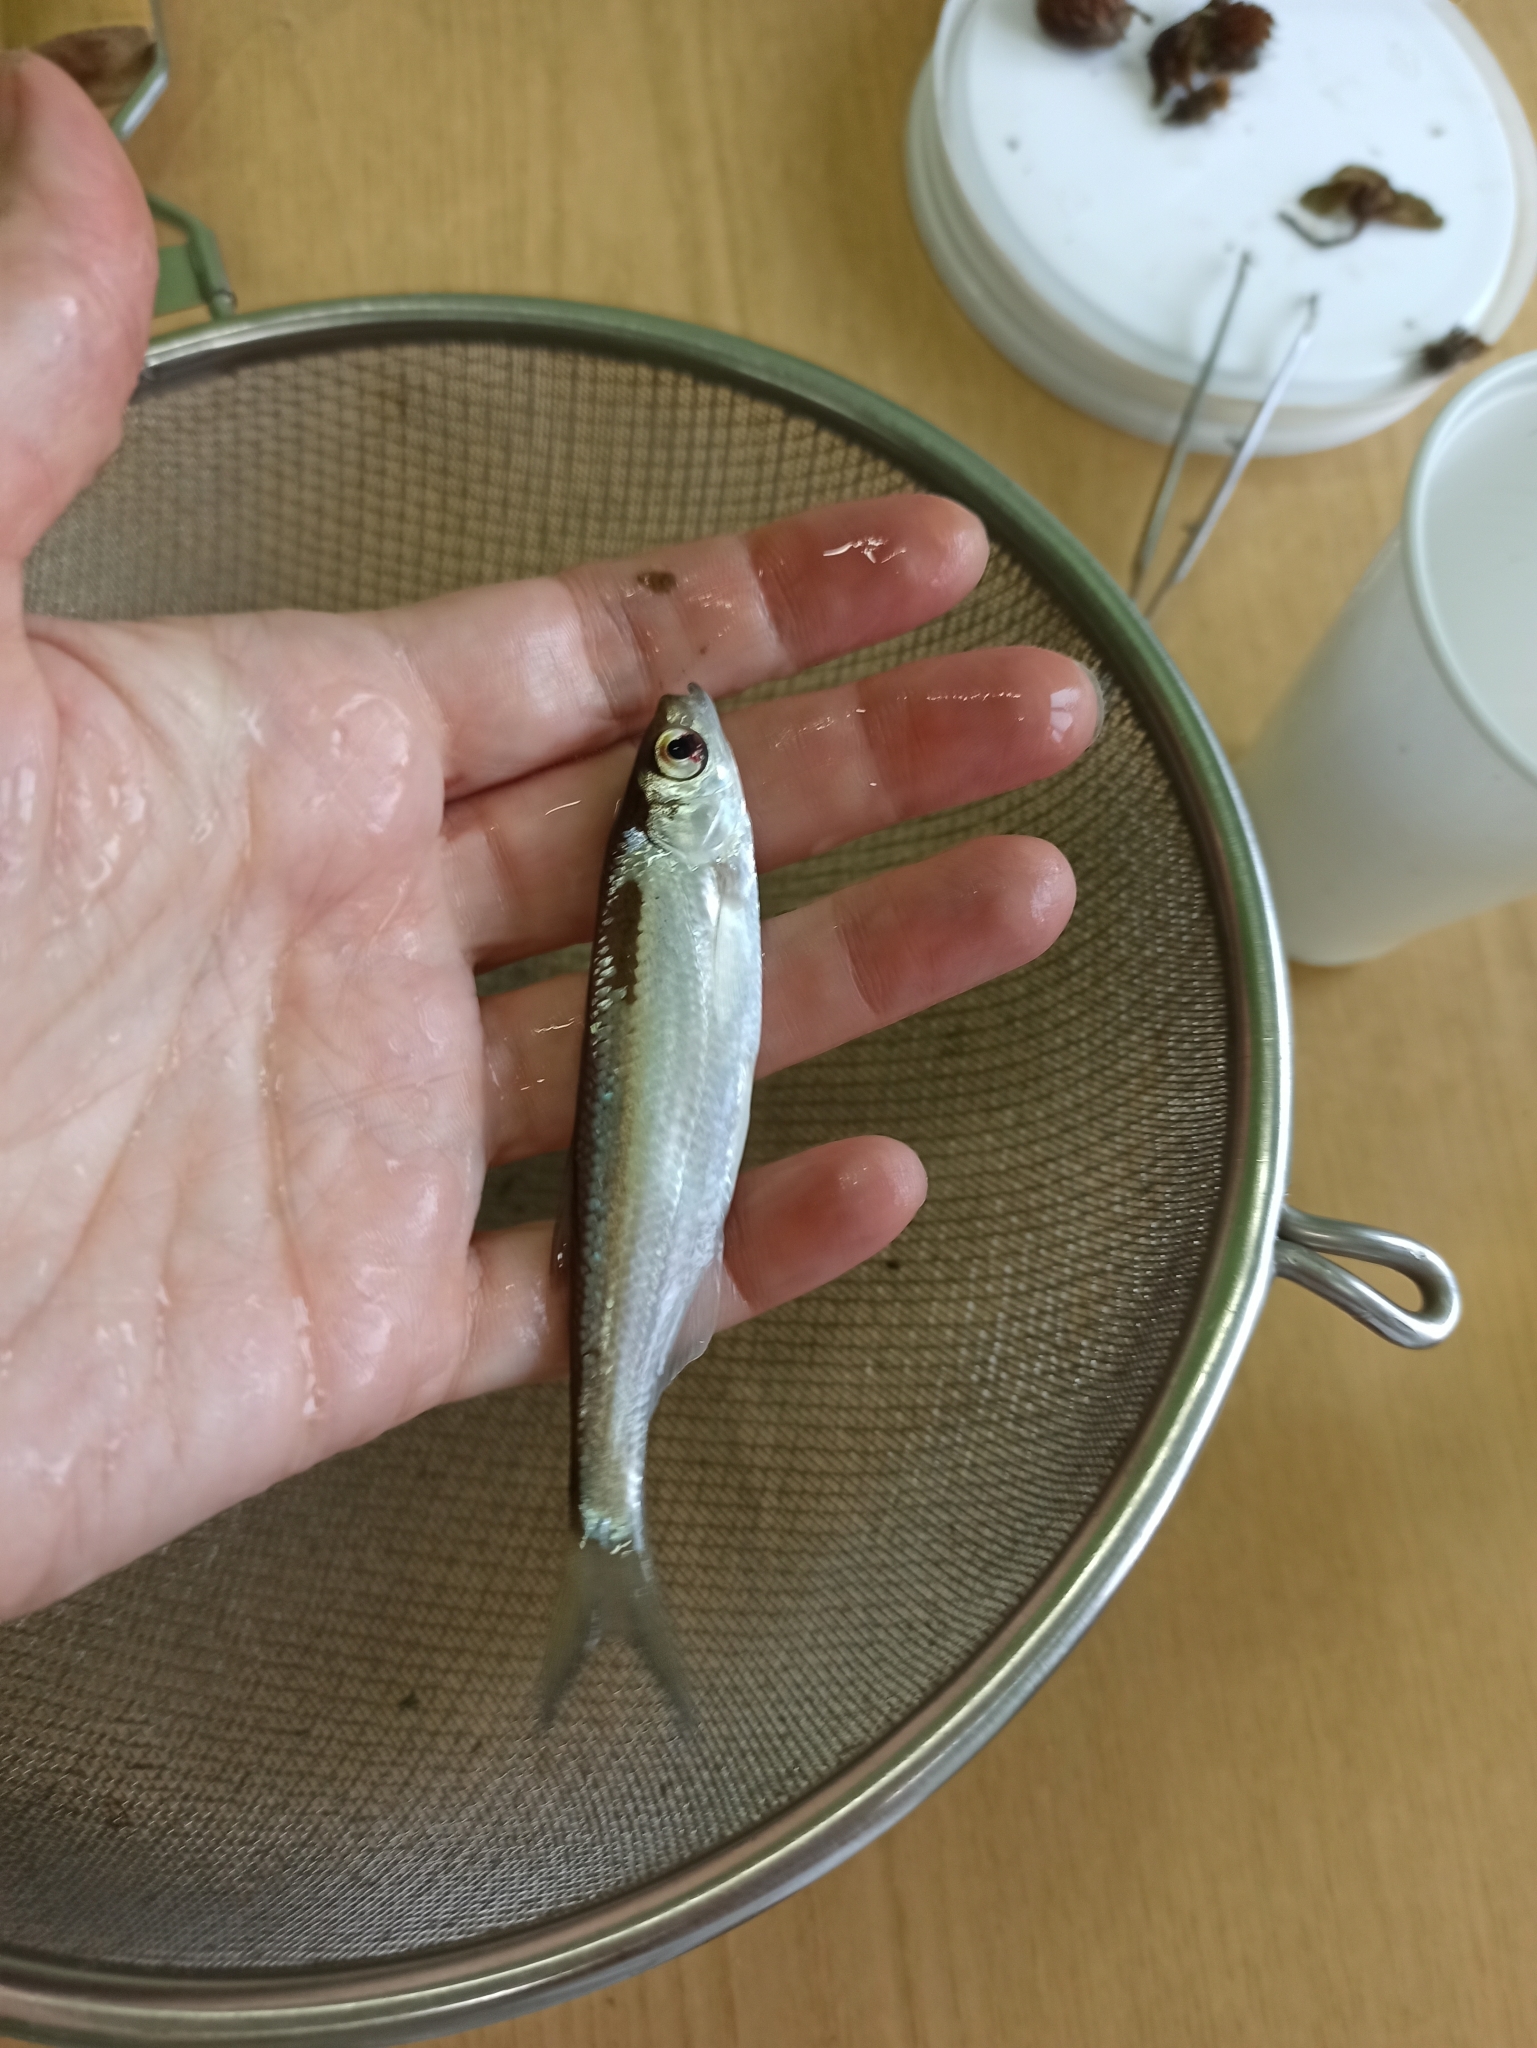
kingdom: Animalia
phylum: Chordata
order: Cypriniformes
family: Cyprinidae
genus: Alburnus
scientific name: Alburnus alburnus
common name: Bleak
